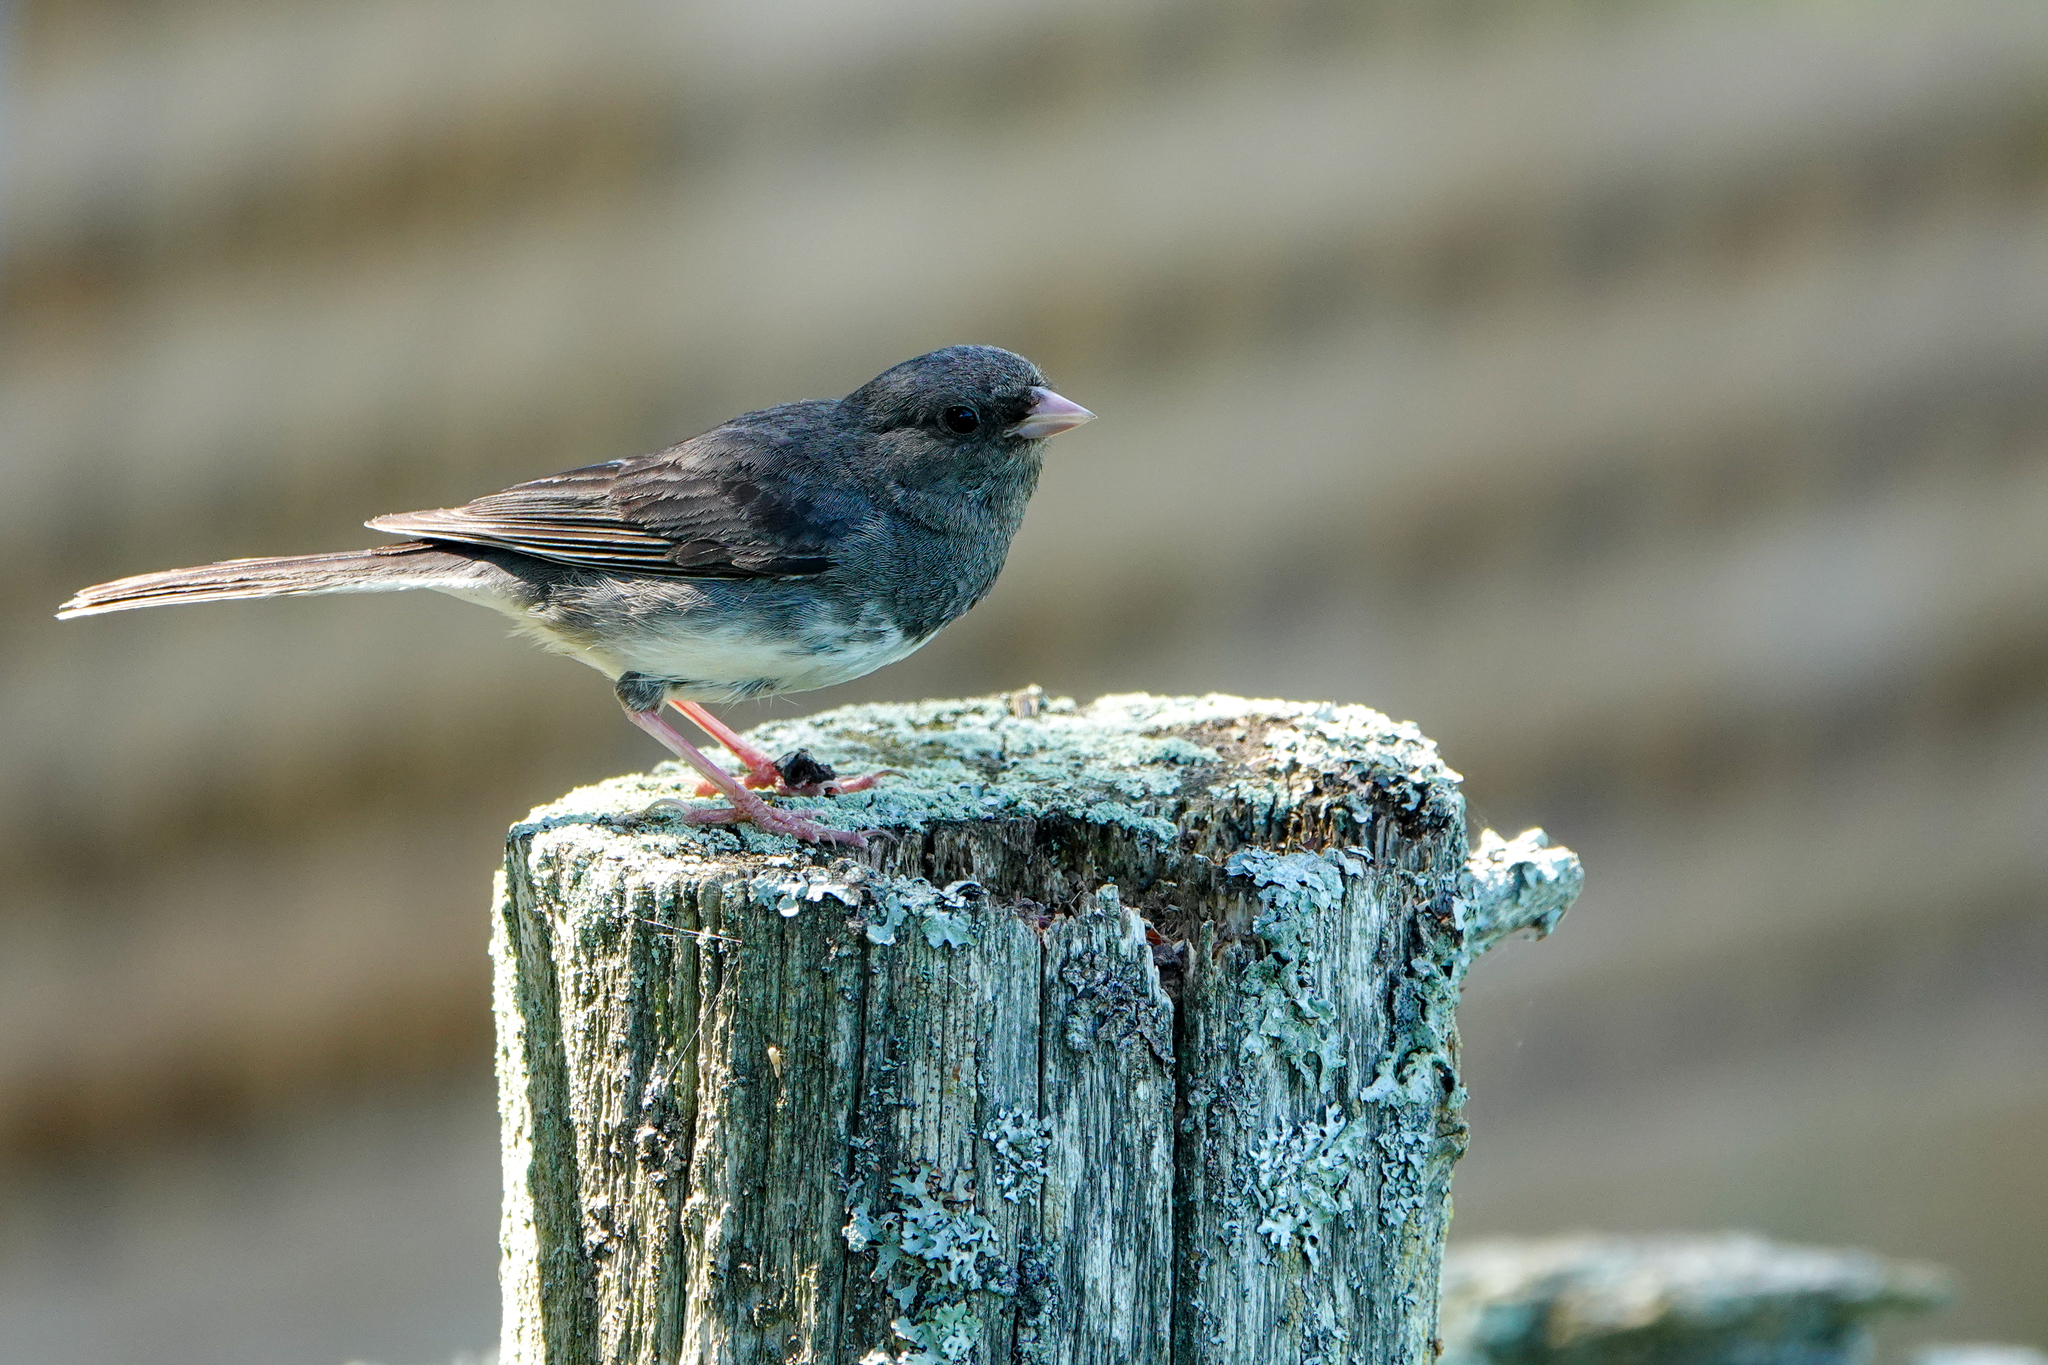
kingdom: Animalia
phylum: Chordata
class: Aves
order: Passeriformes
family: Passerellidae
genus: Junco
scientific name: Junco hyemalis
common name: Dark-eyed junco
